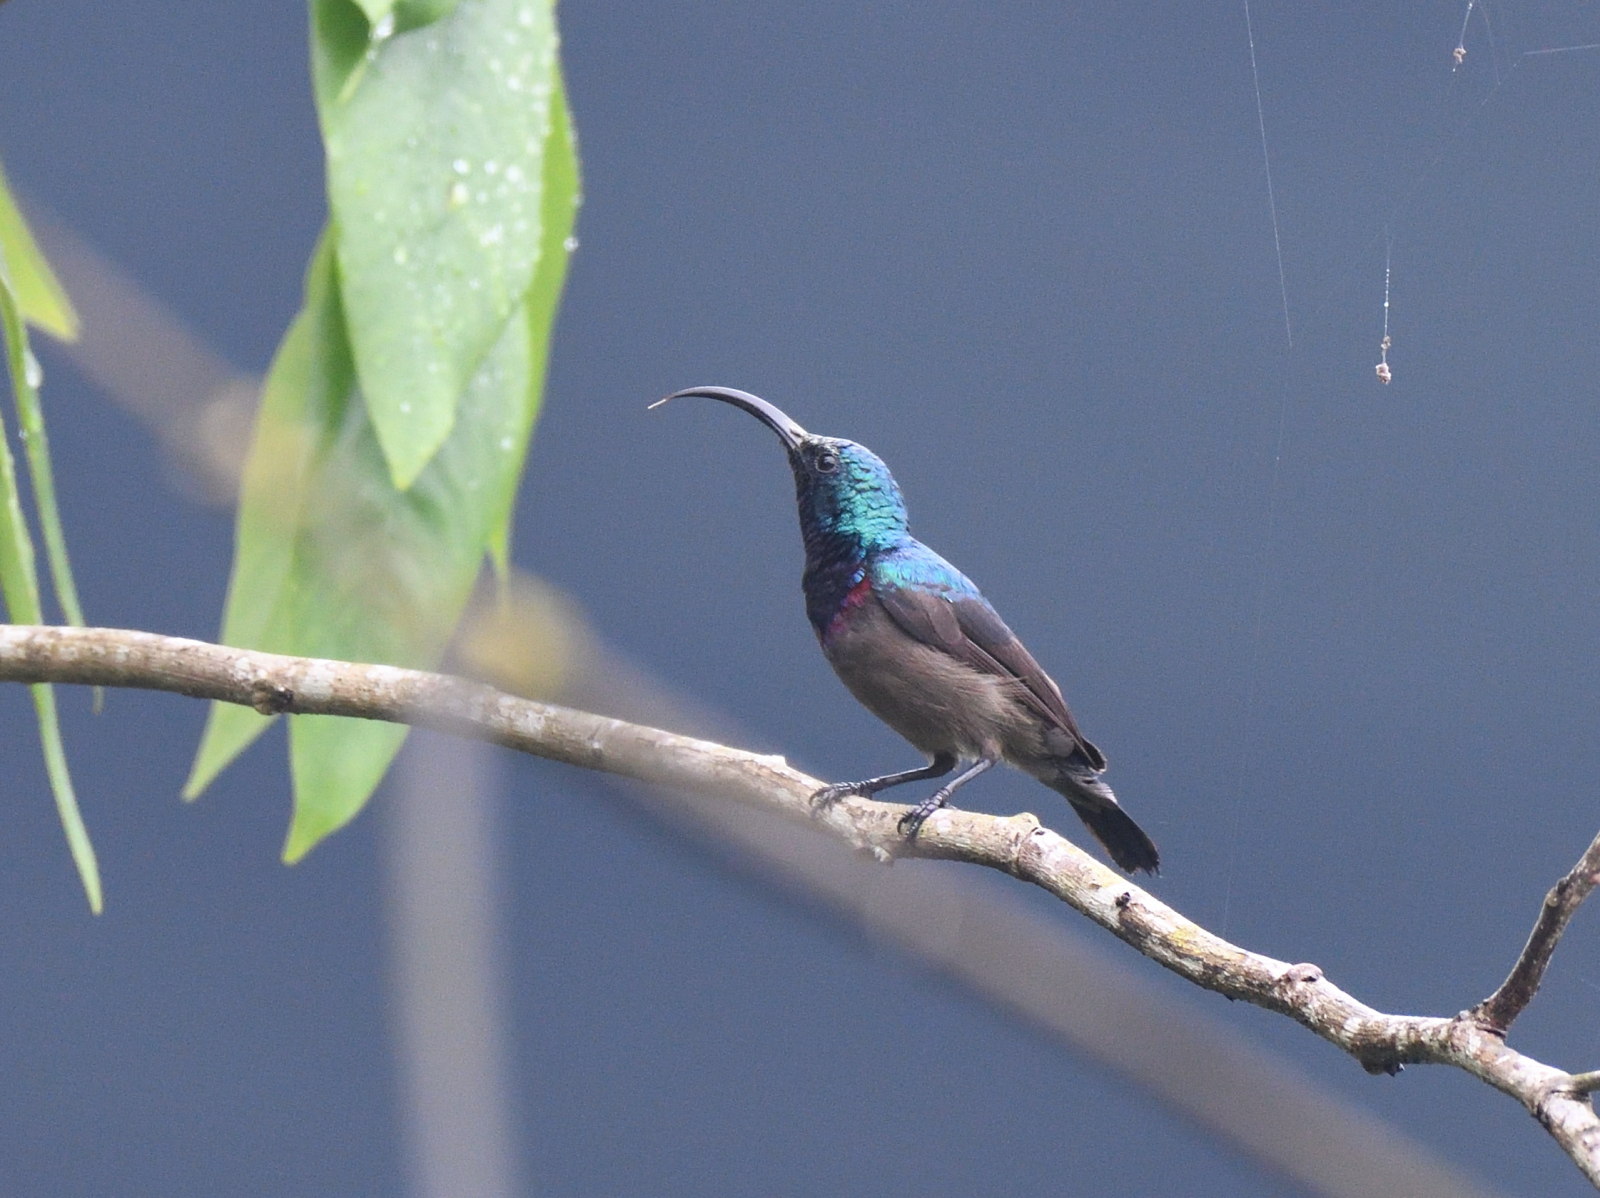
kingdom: Animalia
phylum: Chordata
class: Aves
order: Passeriformes
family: Nectariniidae
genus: Cinnyris
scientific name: Cinnyris lotenius
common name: Loten's sunbird
